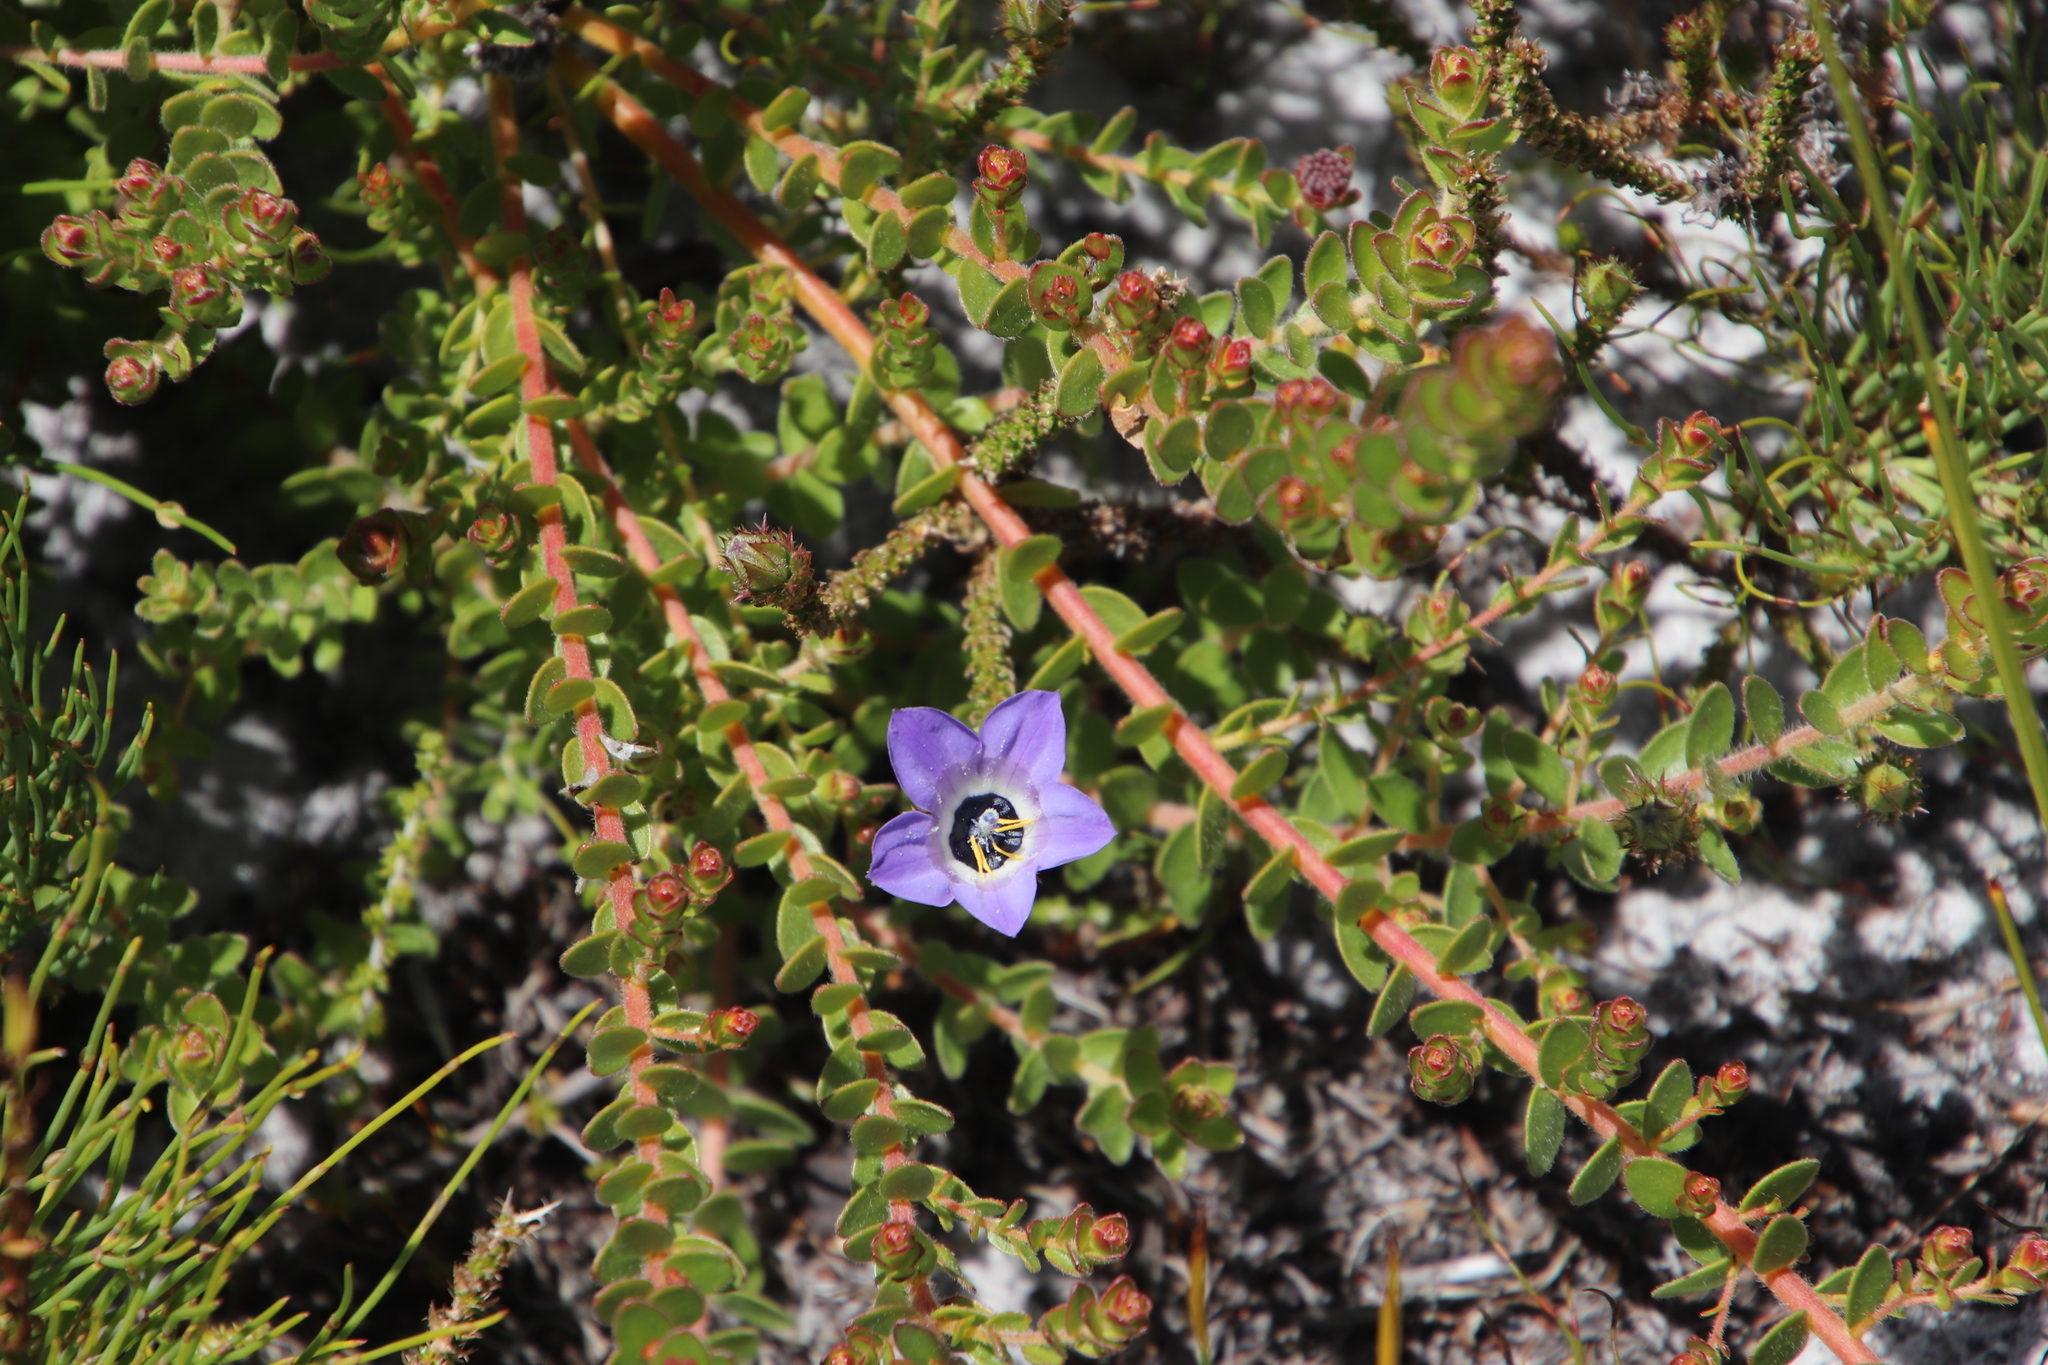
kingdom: Plantae
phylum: Tracheophyta
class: Magnoliopsida
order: Asterales
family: Campanulaceae
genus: Roella
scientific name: Roella triflora
